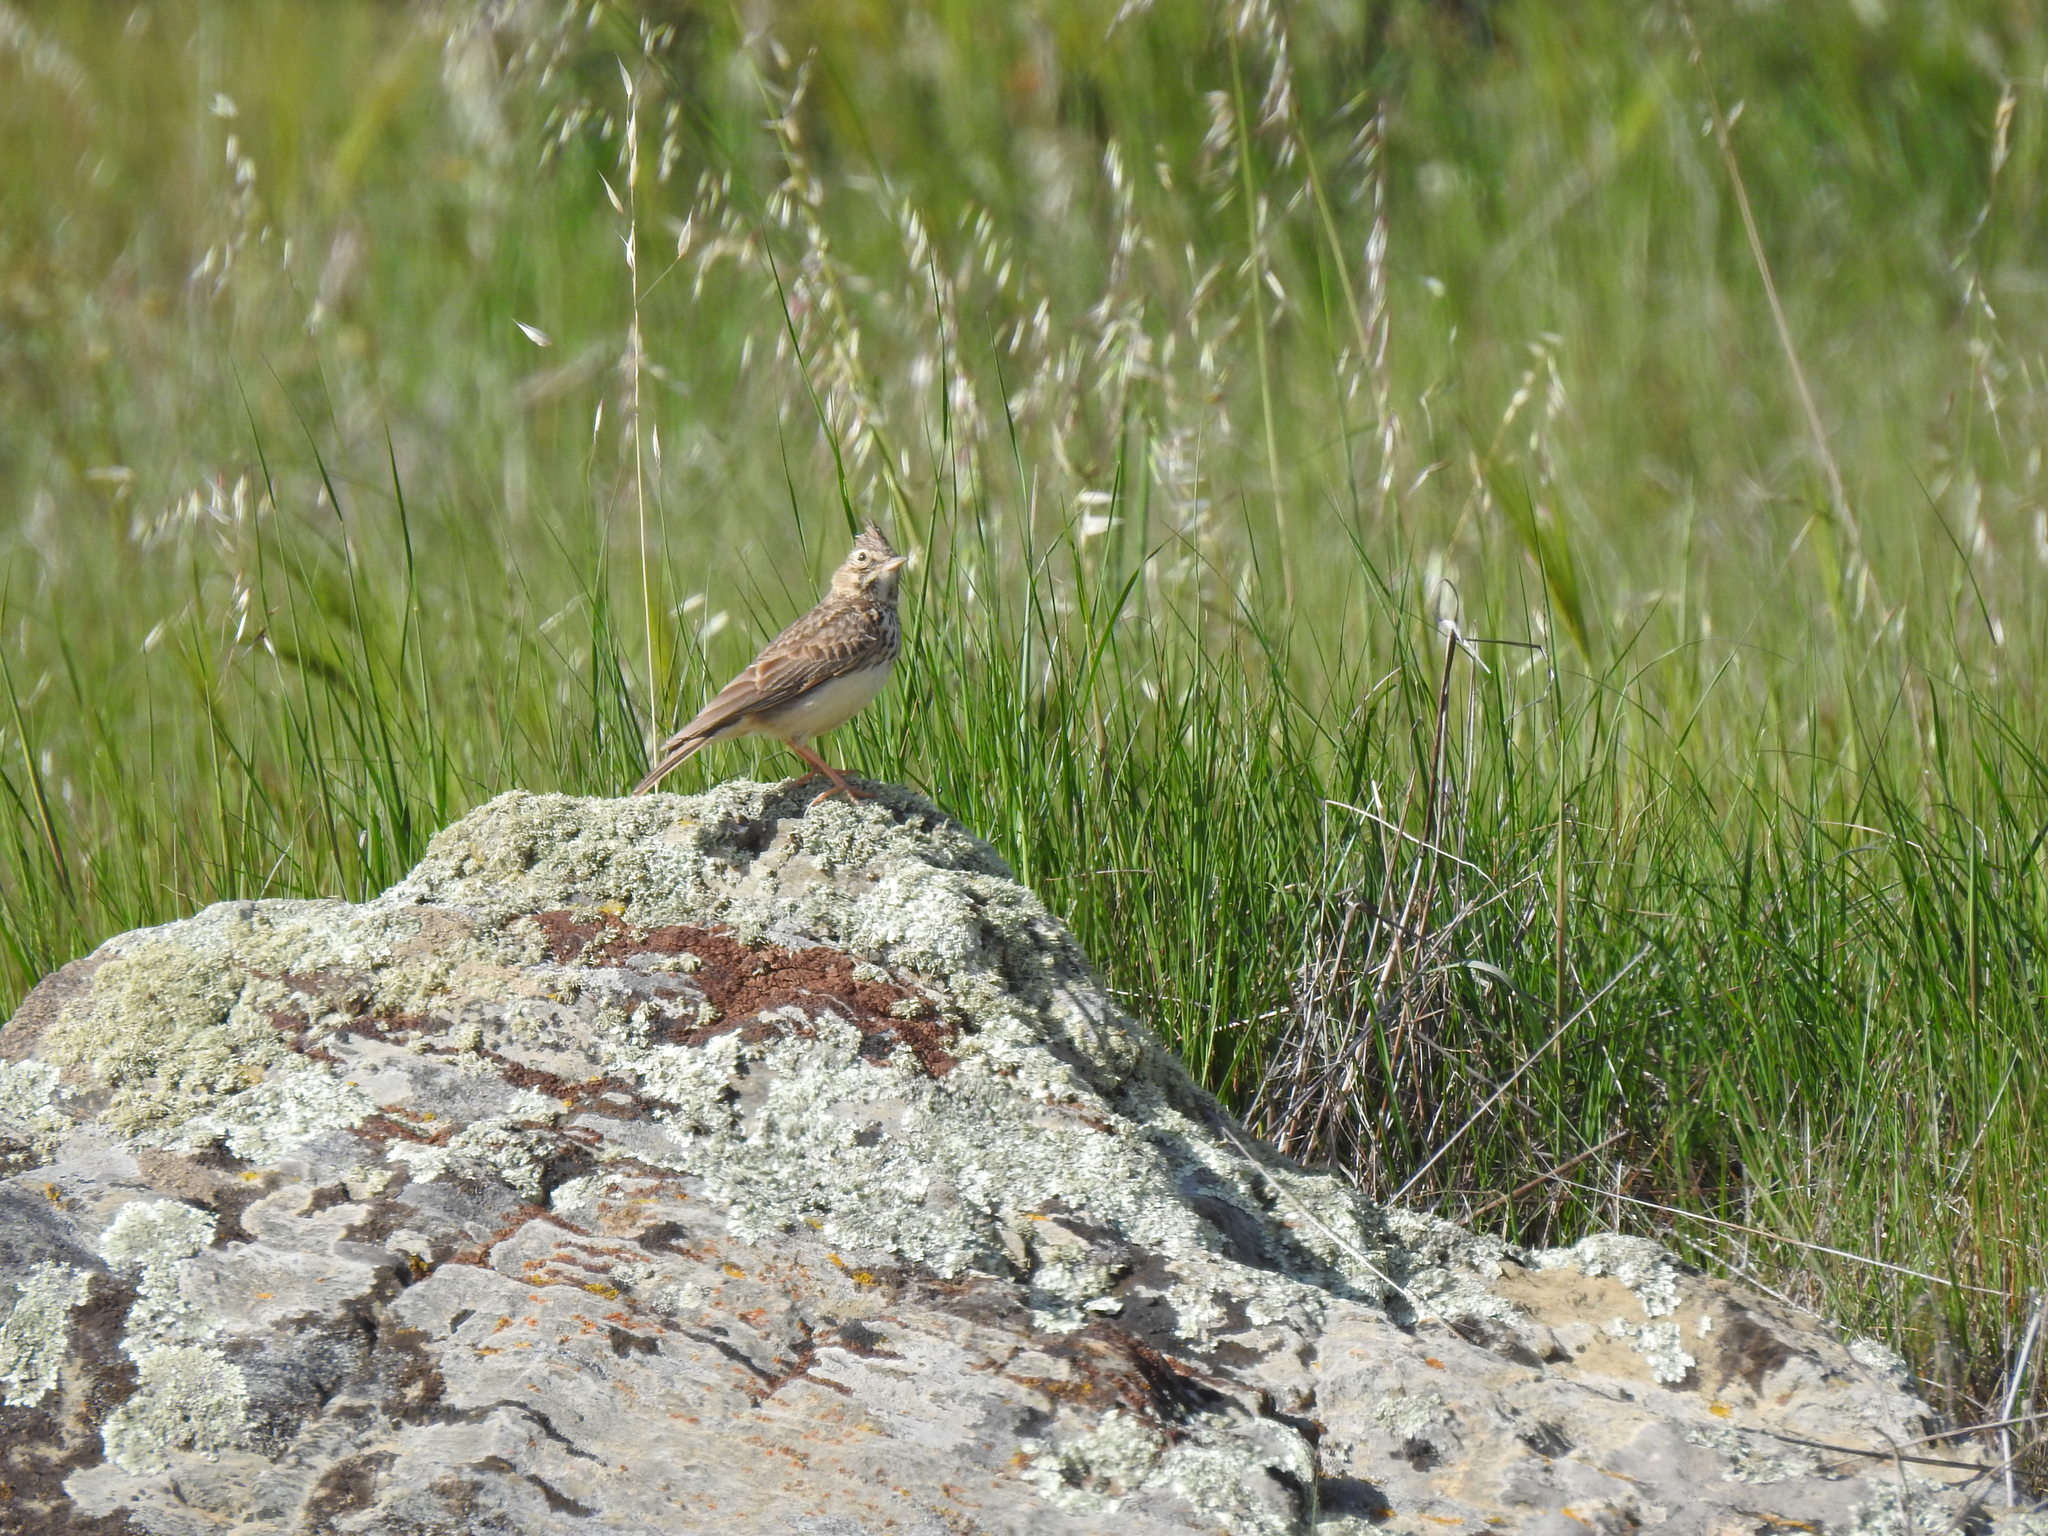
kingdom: Animalia
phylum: Chordata
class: Aves
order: Passeriformes
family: Alaudidae
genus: Galerida
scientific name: Galerida theklae
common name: Thekla lark
